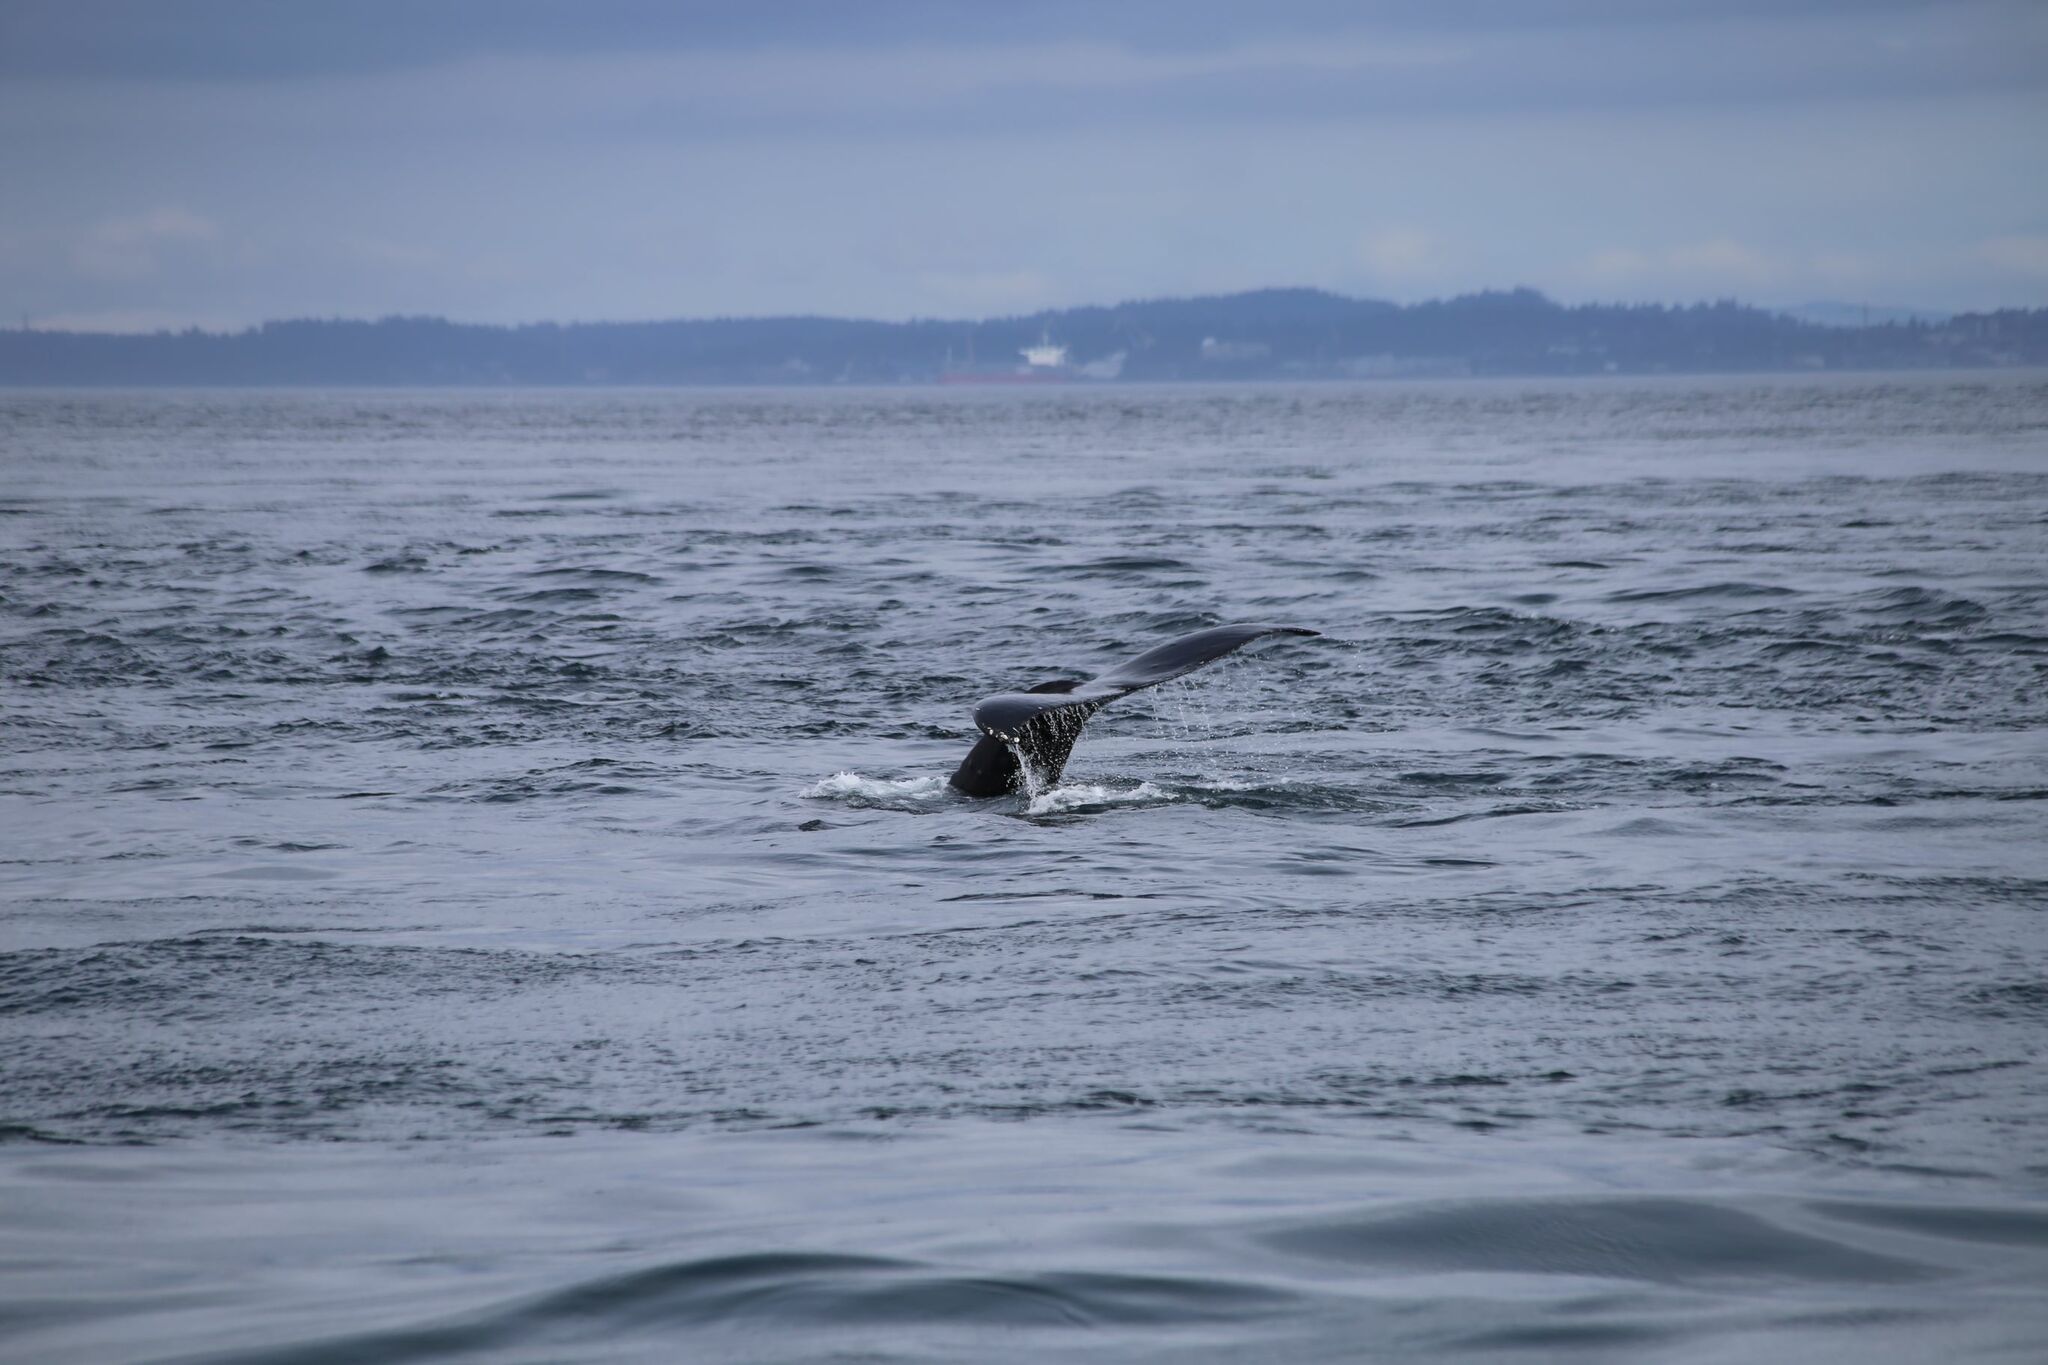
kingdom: Animalia
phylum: Chordata
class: Mammalia
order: Cetacea
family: Balaenopteridae
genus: Megaptera
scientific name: Megaptera novaeangliae
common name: Humpback whale
